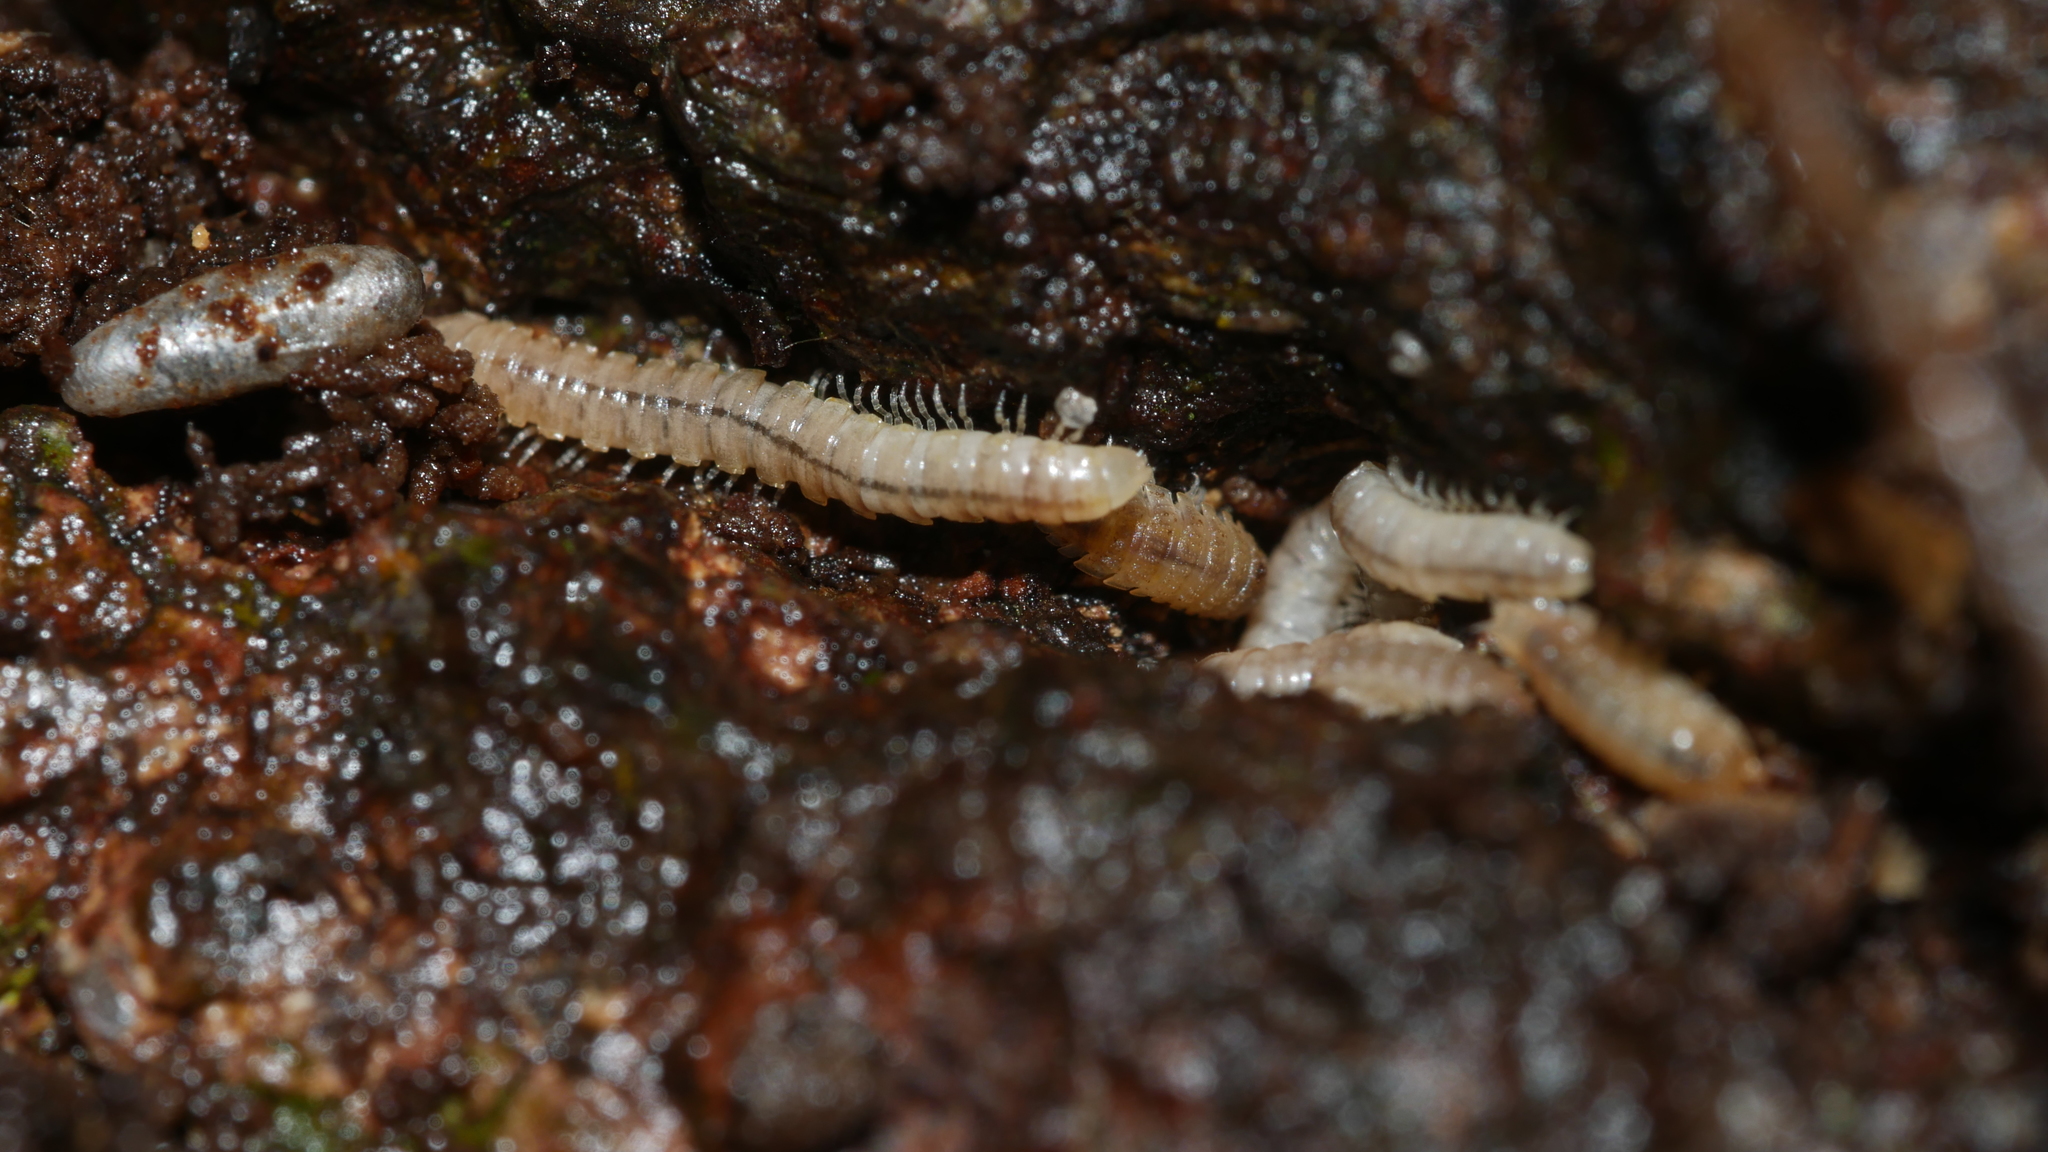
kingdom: Animalia
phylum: Arthropoda
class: Diplopoda
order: Polydesmida
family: Paradoxosomatidae
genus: Oxidus
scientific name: Oxidus gracilis
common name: Greenhouse millipede
